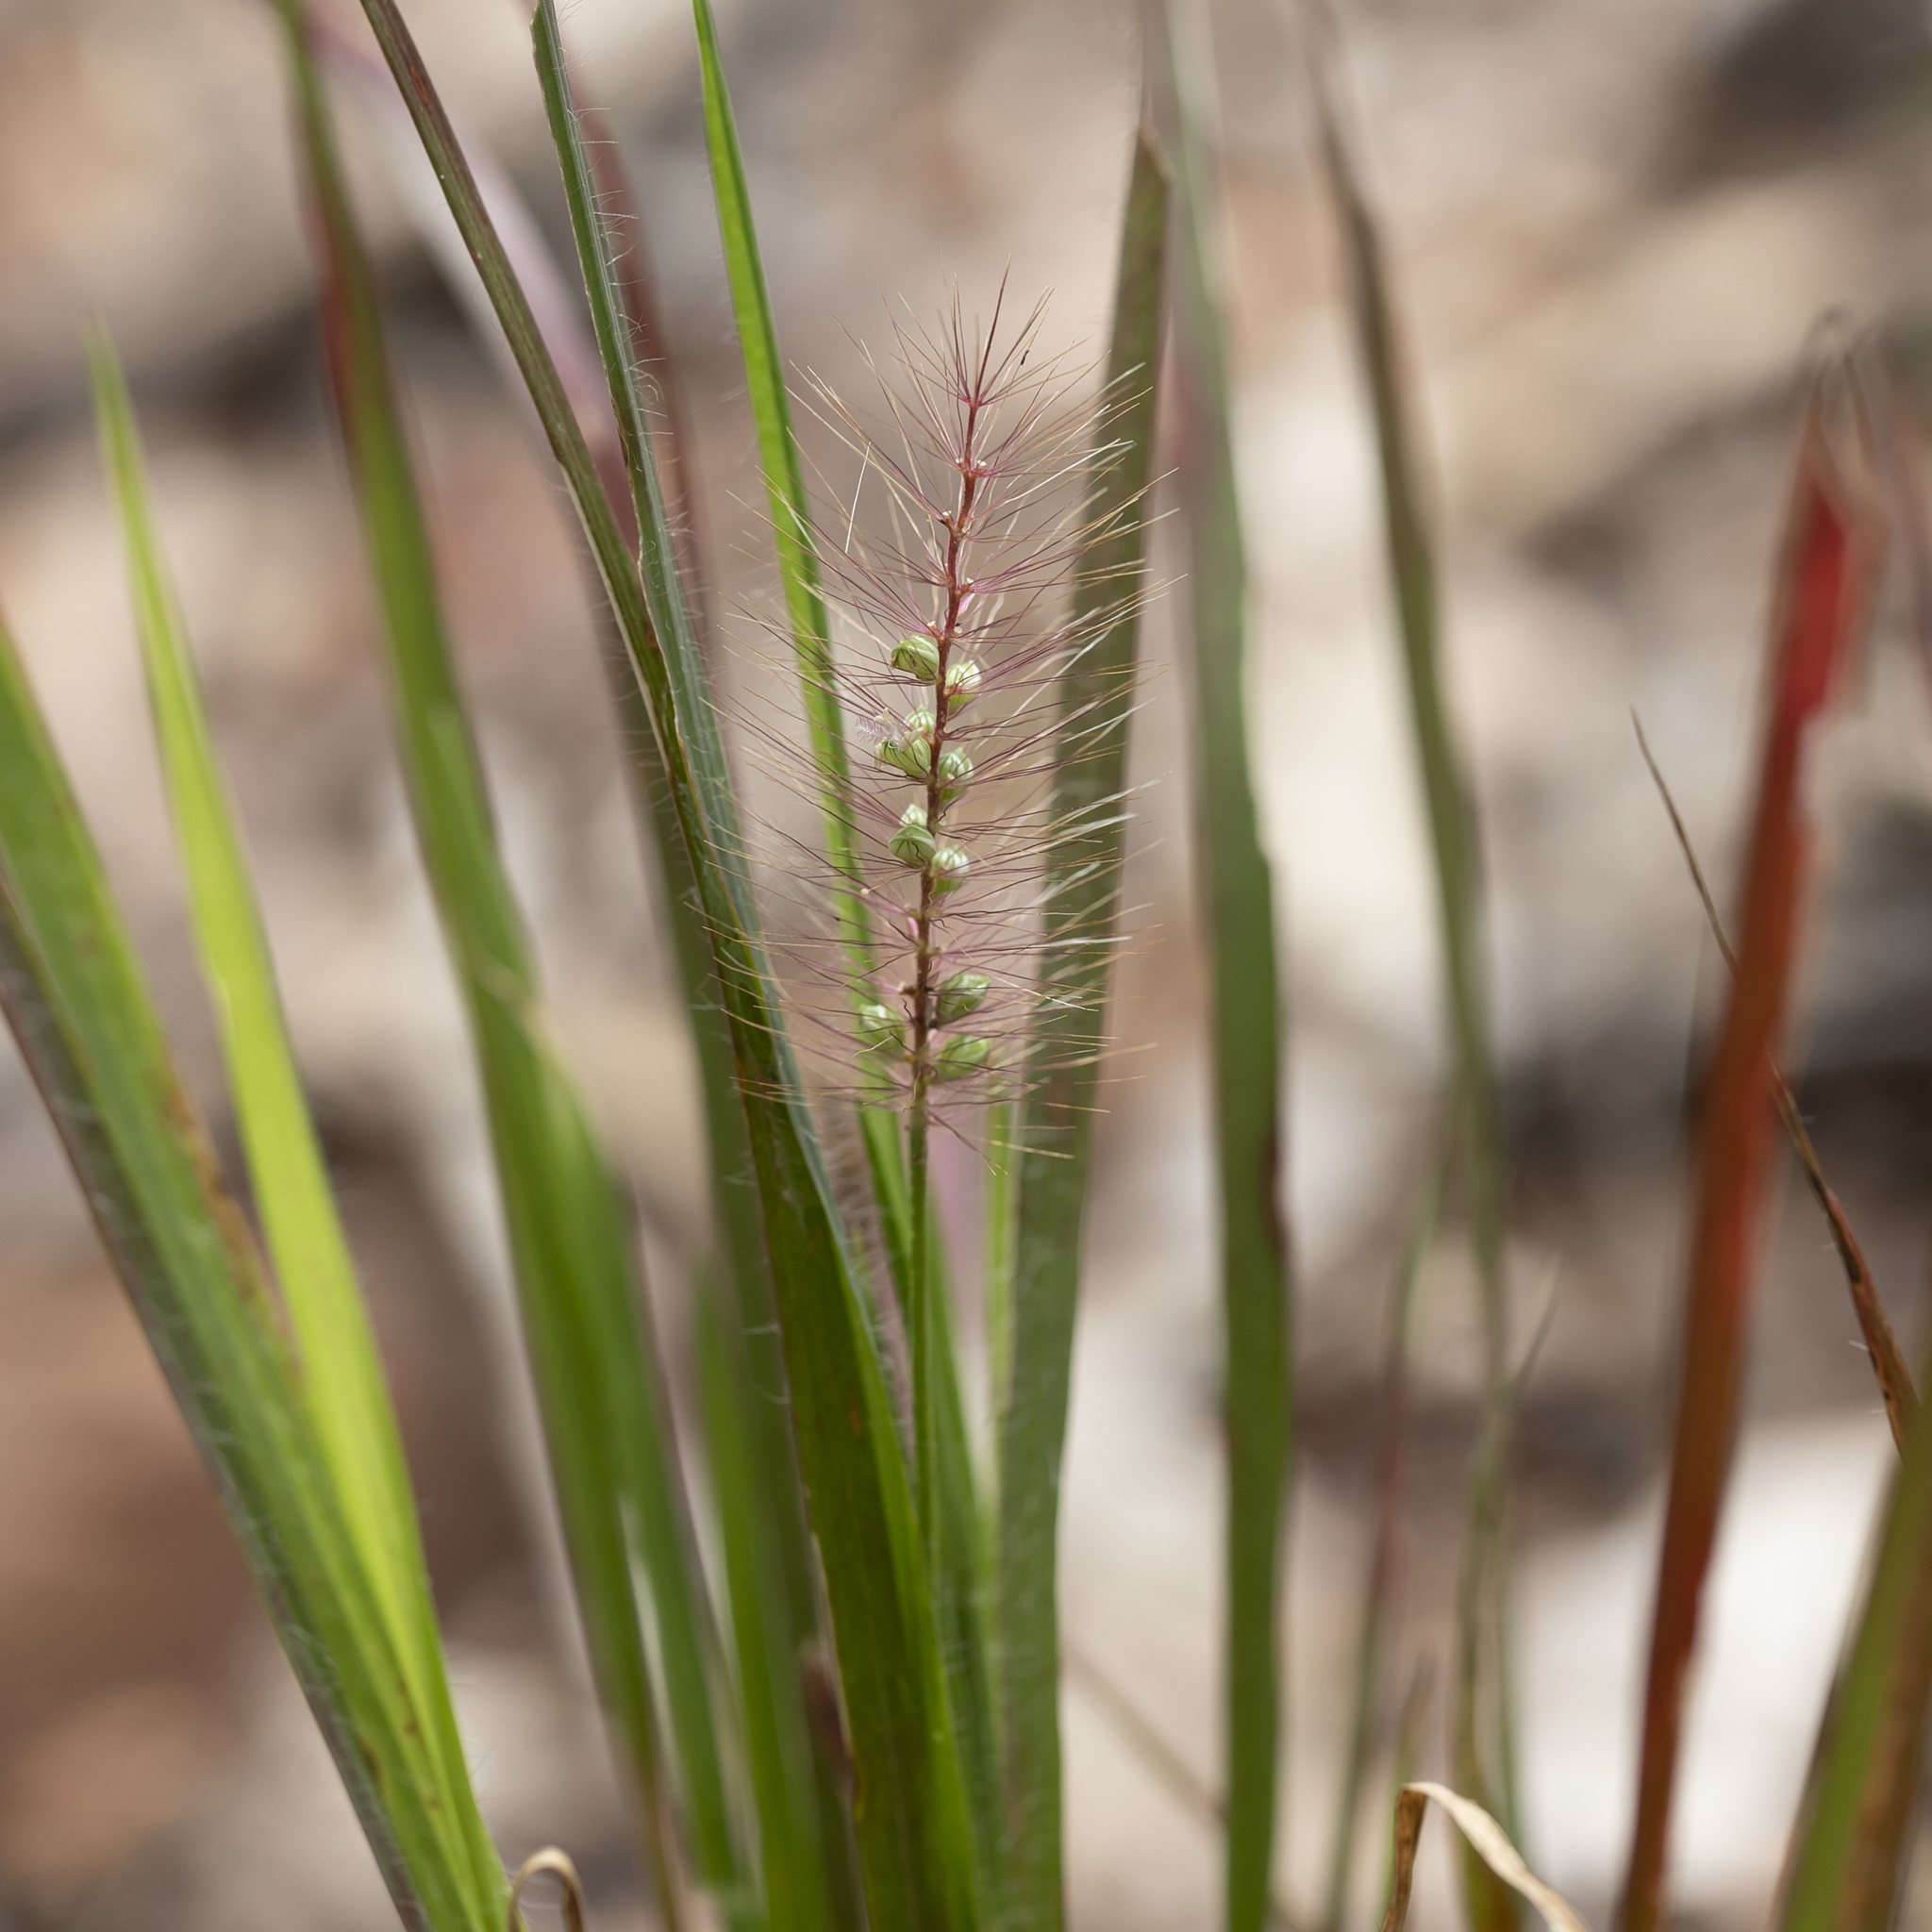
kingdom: Plantae
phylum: Tracheophyta
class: Liliopsida
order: Poales
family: Poaceae
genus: Setaria
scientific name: Setaria apiculata
